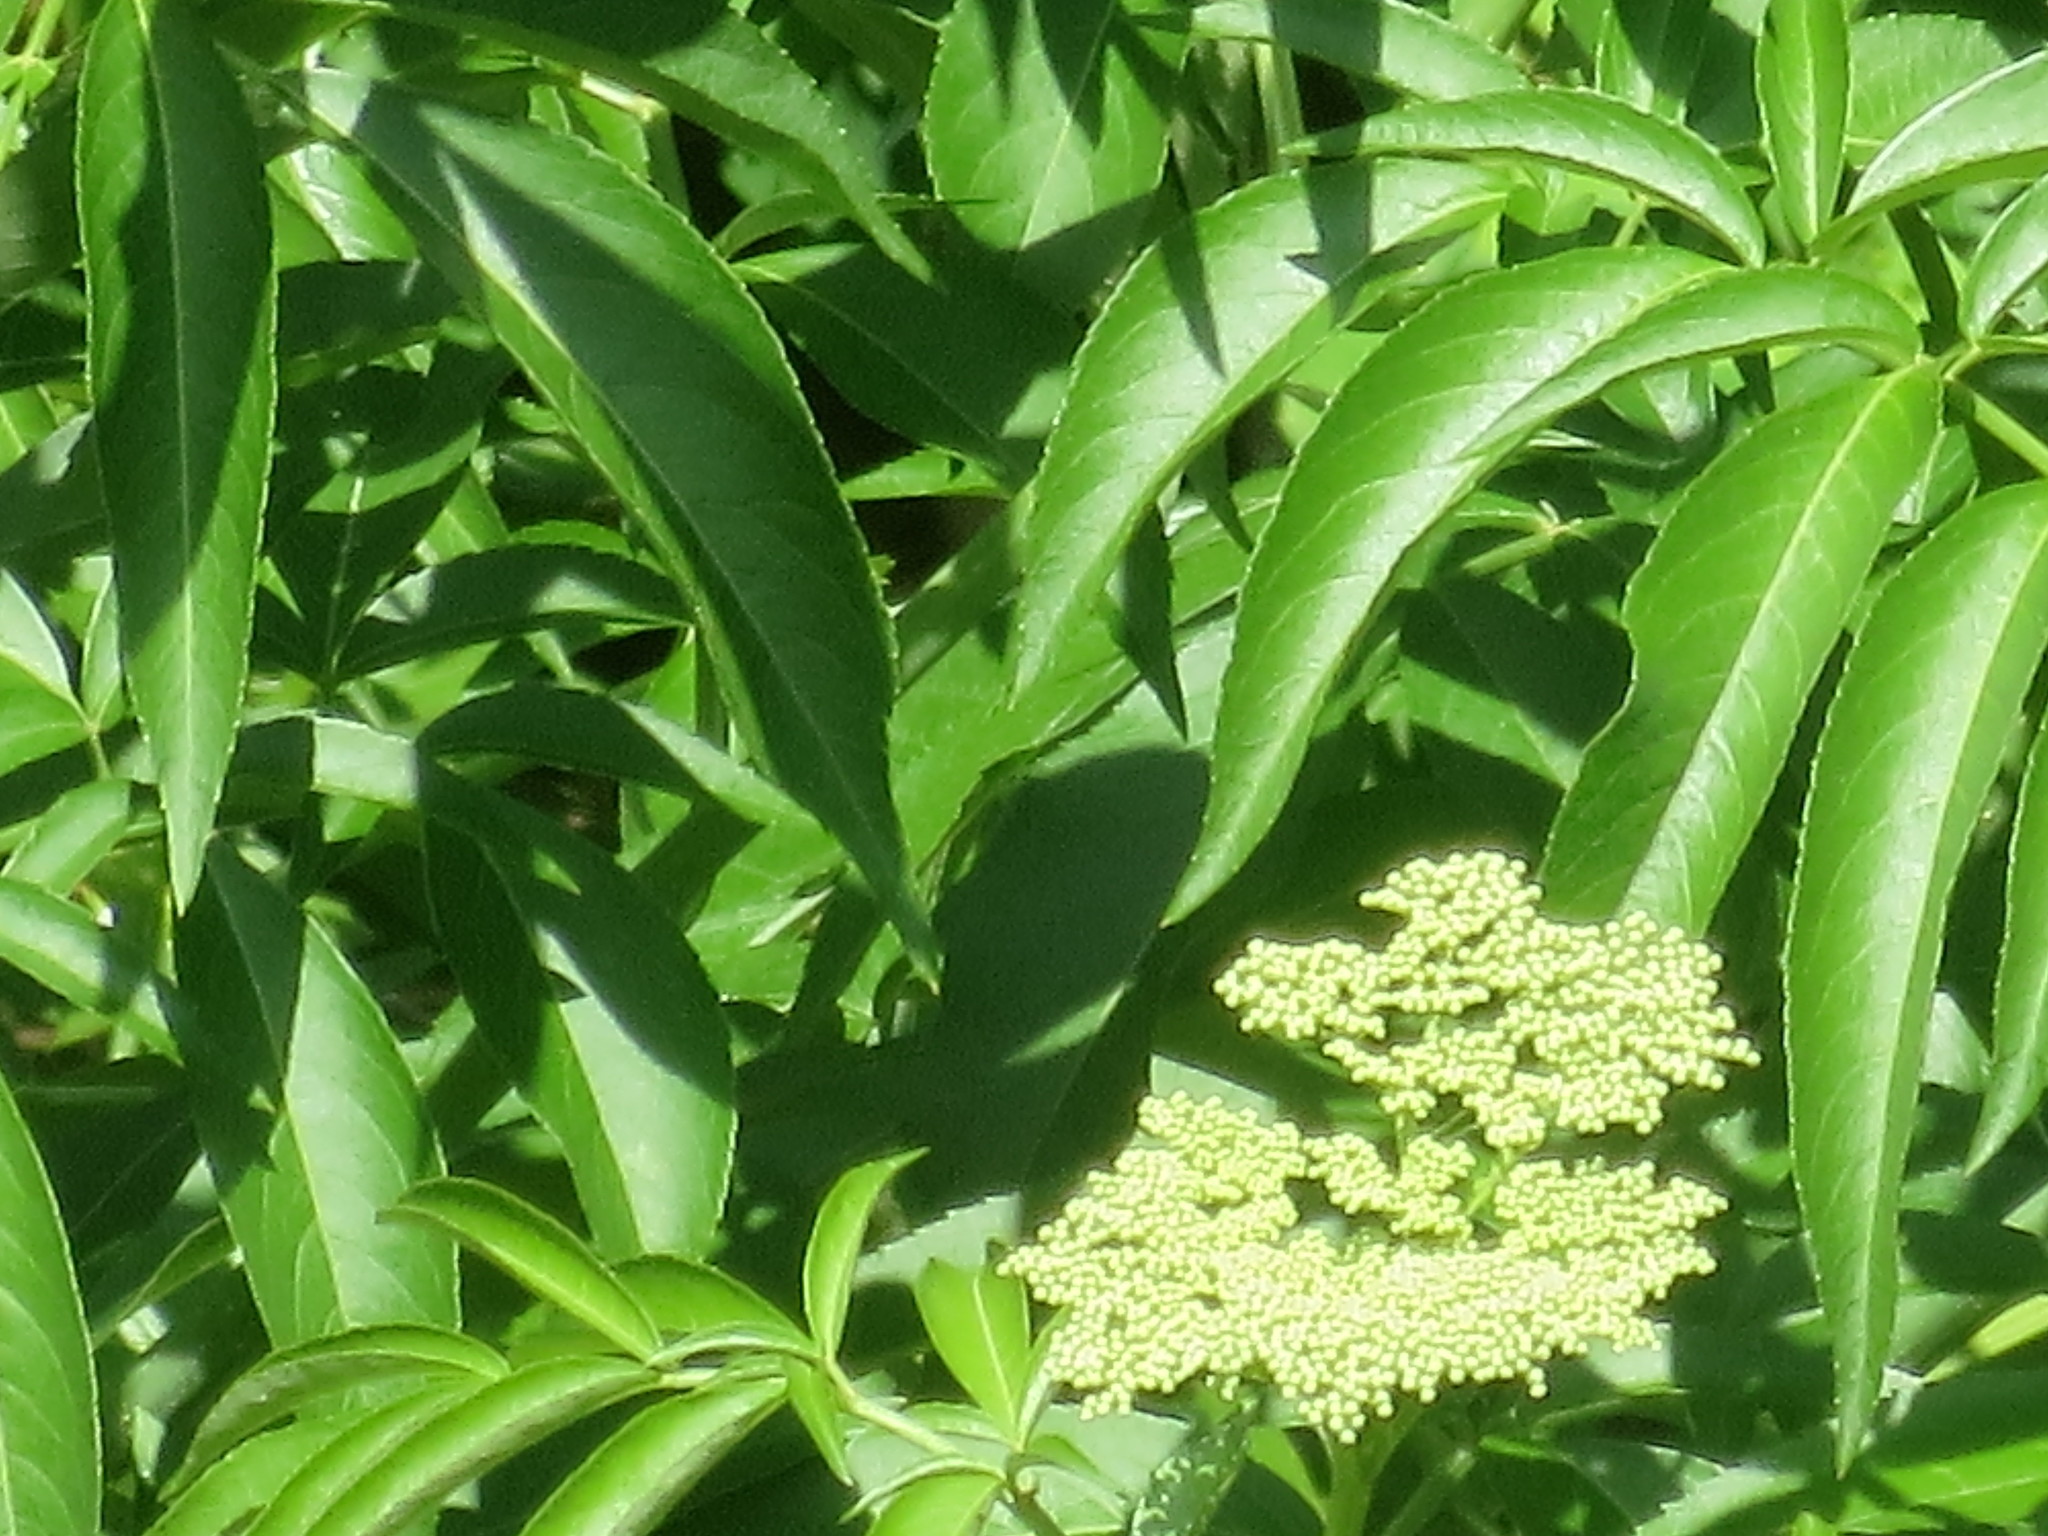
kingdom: Plantae
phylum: Tracheophyta
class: Magnoliopsida
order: Dipsacales
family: Viburnaceae
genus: Sambucus
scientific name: Sambucus canadensis
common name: American elder
